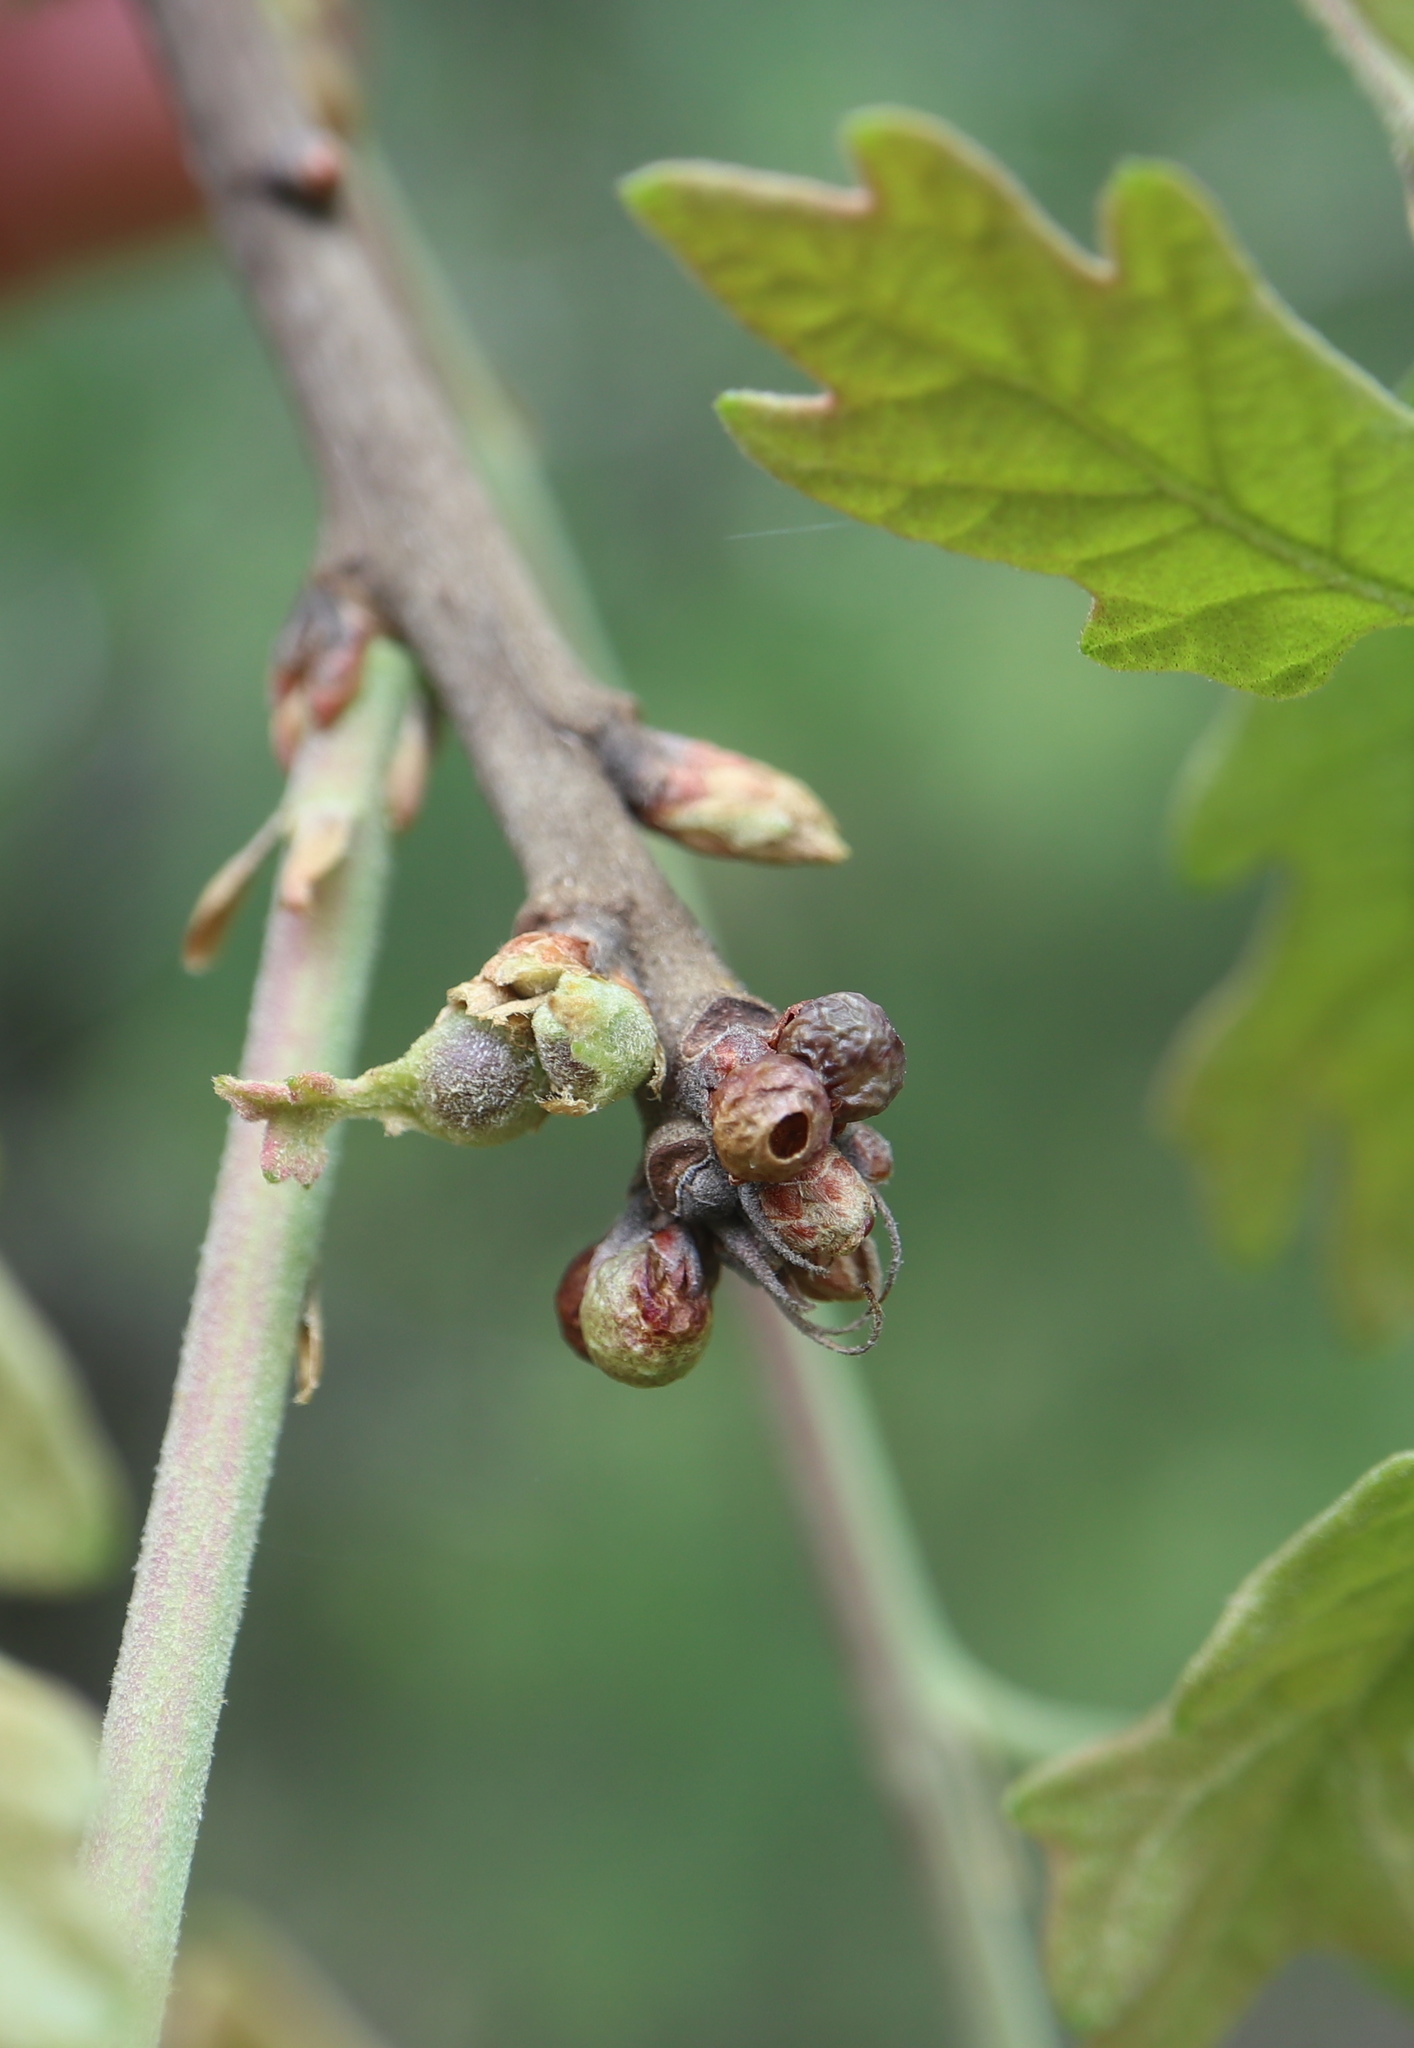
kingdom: Animalia
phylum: Arthropoda
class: Insecta
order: Hymenoptera
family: Cynipidae
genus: Neuroterus
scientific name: Neuroterus
